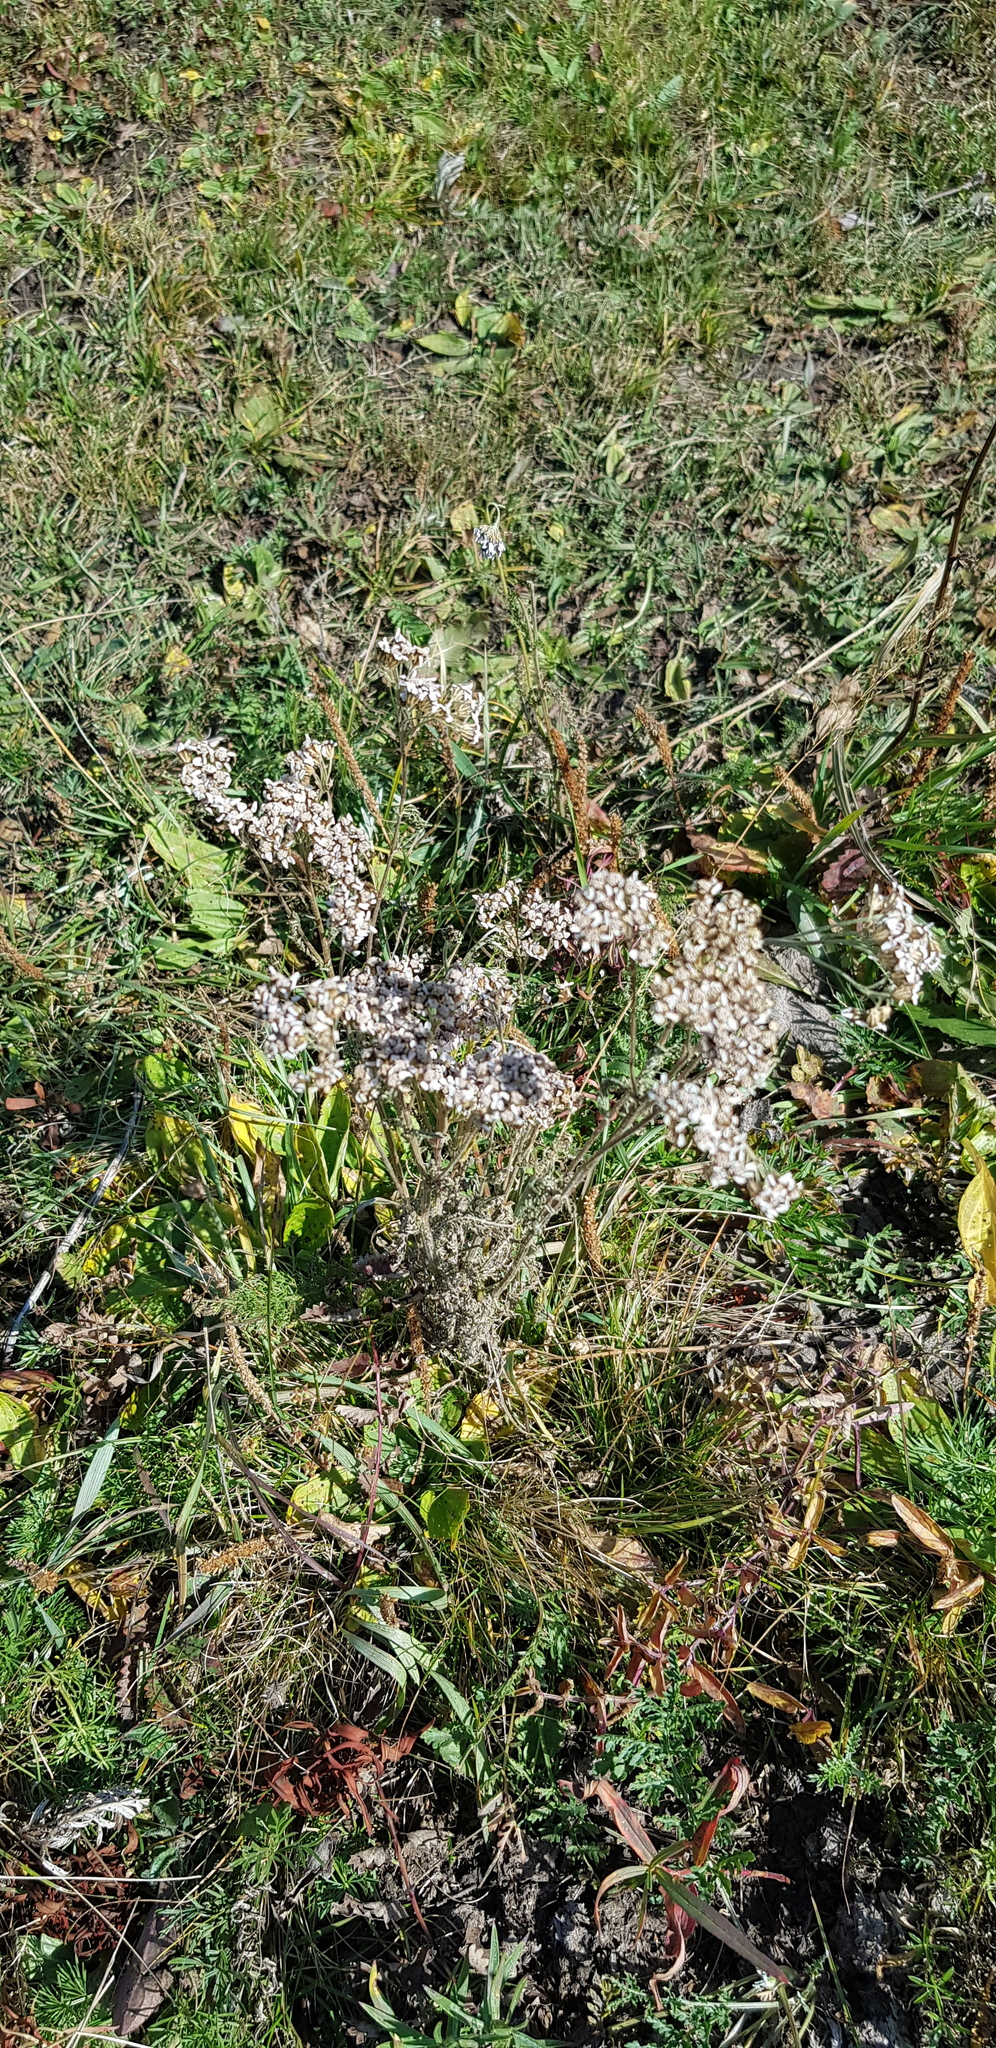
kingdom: Plantae
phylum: Tracheophyta
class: Magnoliopsida
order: Asterales
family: Asteraceae
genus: Achillea
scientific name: Achillea asiatica
